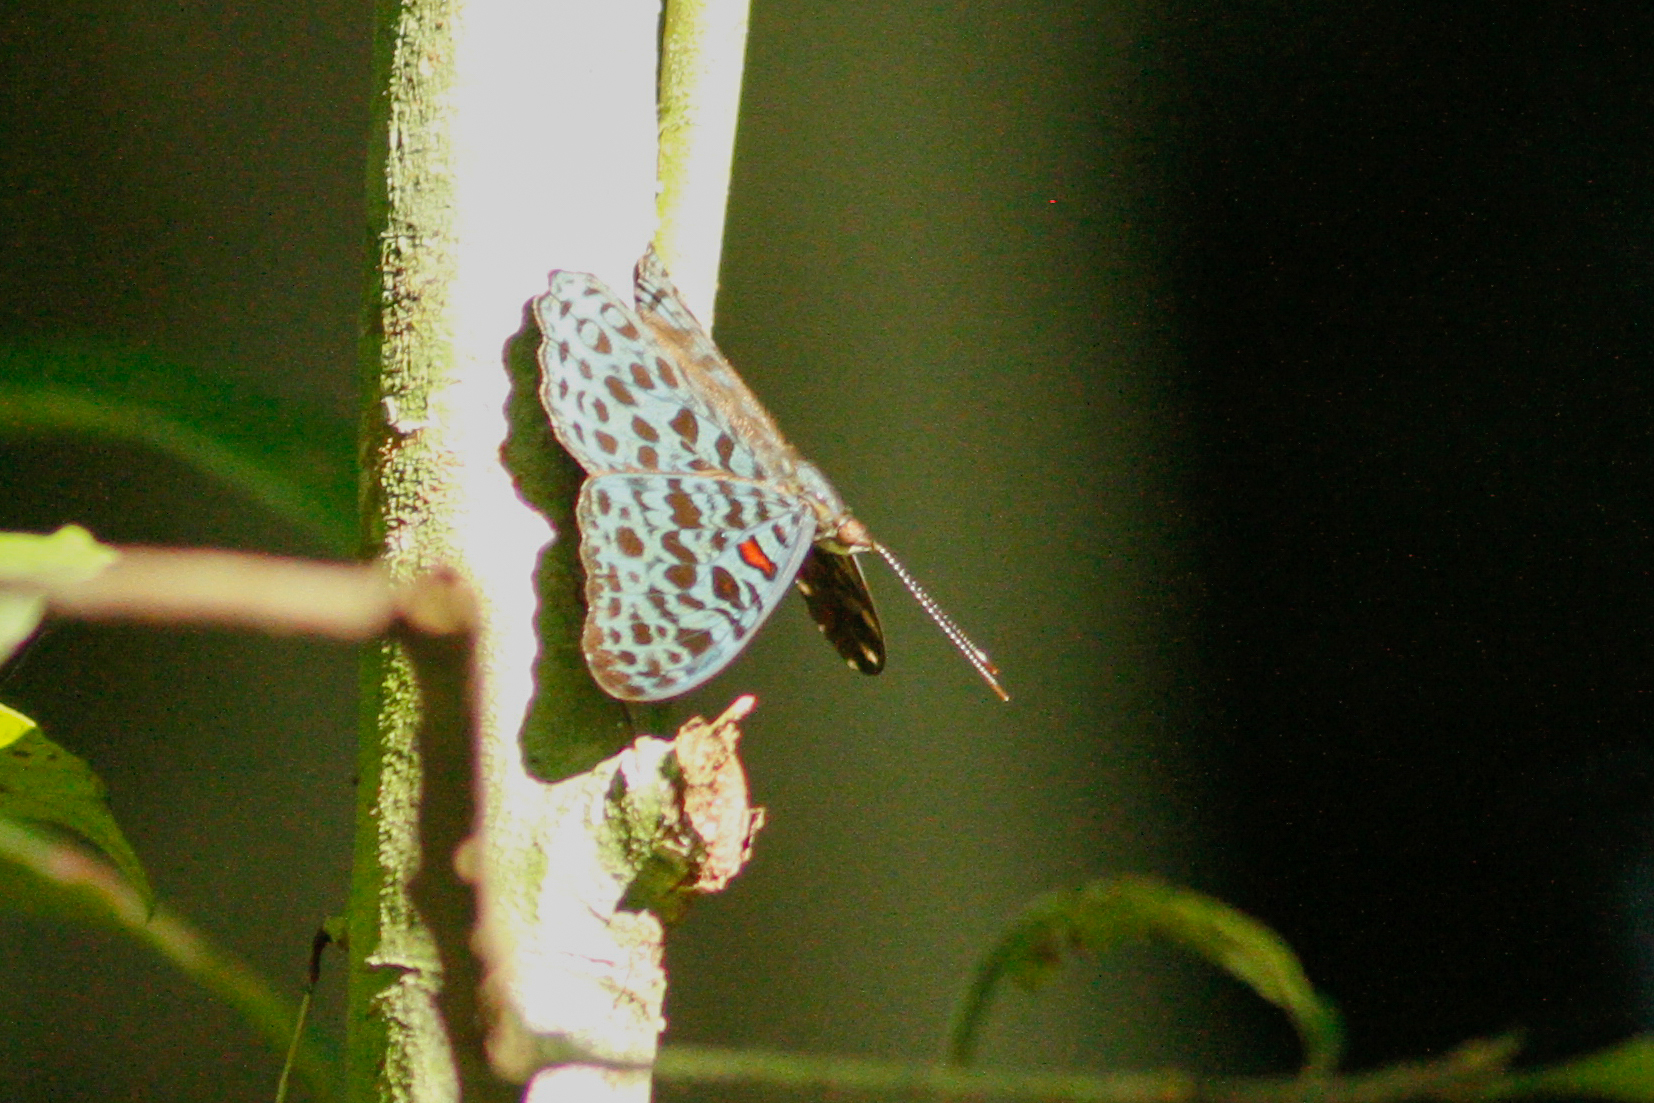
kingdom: Animalia
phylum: Arthropoda
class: Insecta
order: Lepidoptera
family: Nymphalidae
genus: Hamadryas
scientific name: Hamadryas chloe
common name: Amazon cracker
